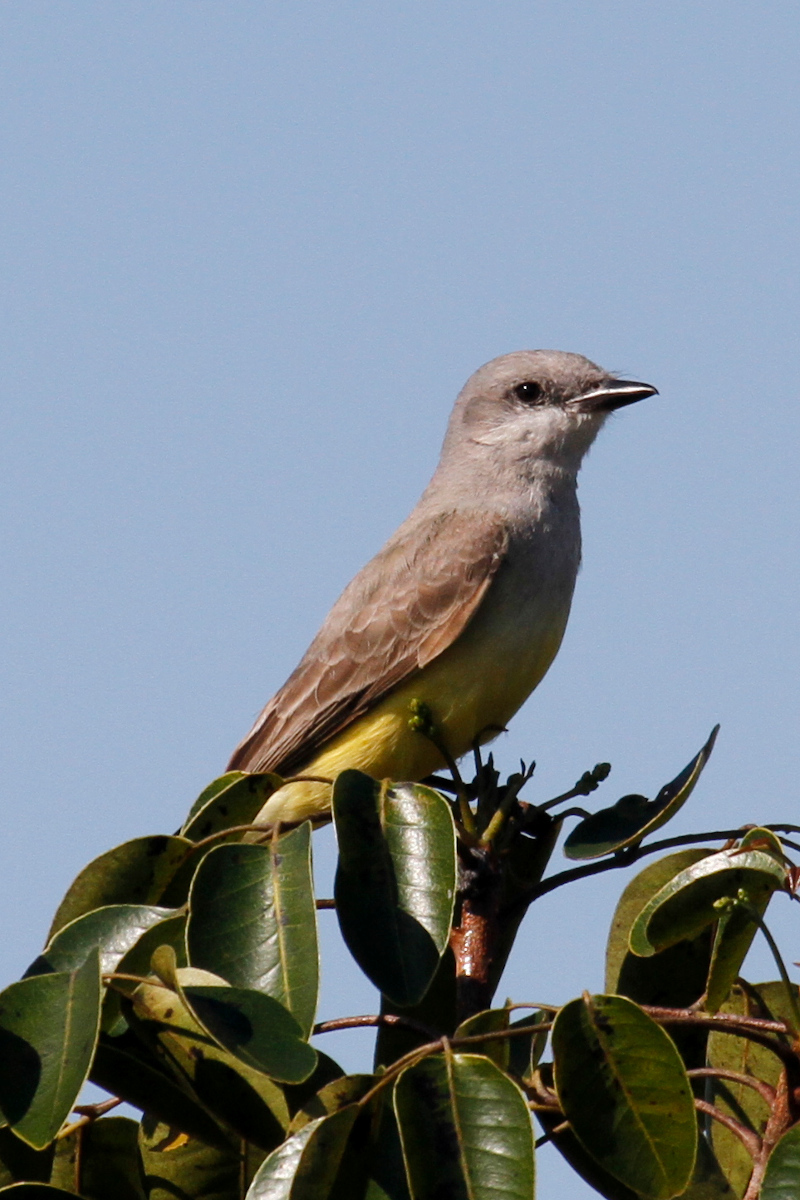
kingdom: Animalia
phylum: Chordata
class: Aves
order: Passeriformes
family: Tyrannidae
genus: Tyrannus
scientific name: Tyrannus verticalis
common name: Western kingbird
